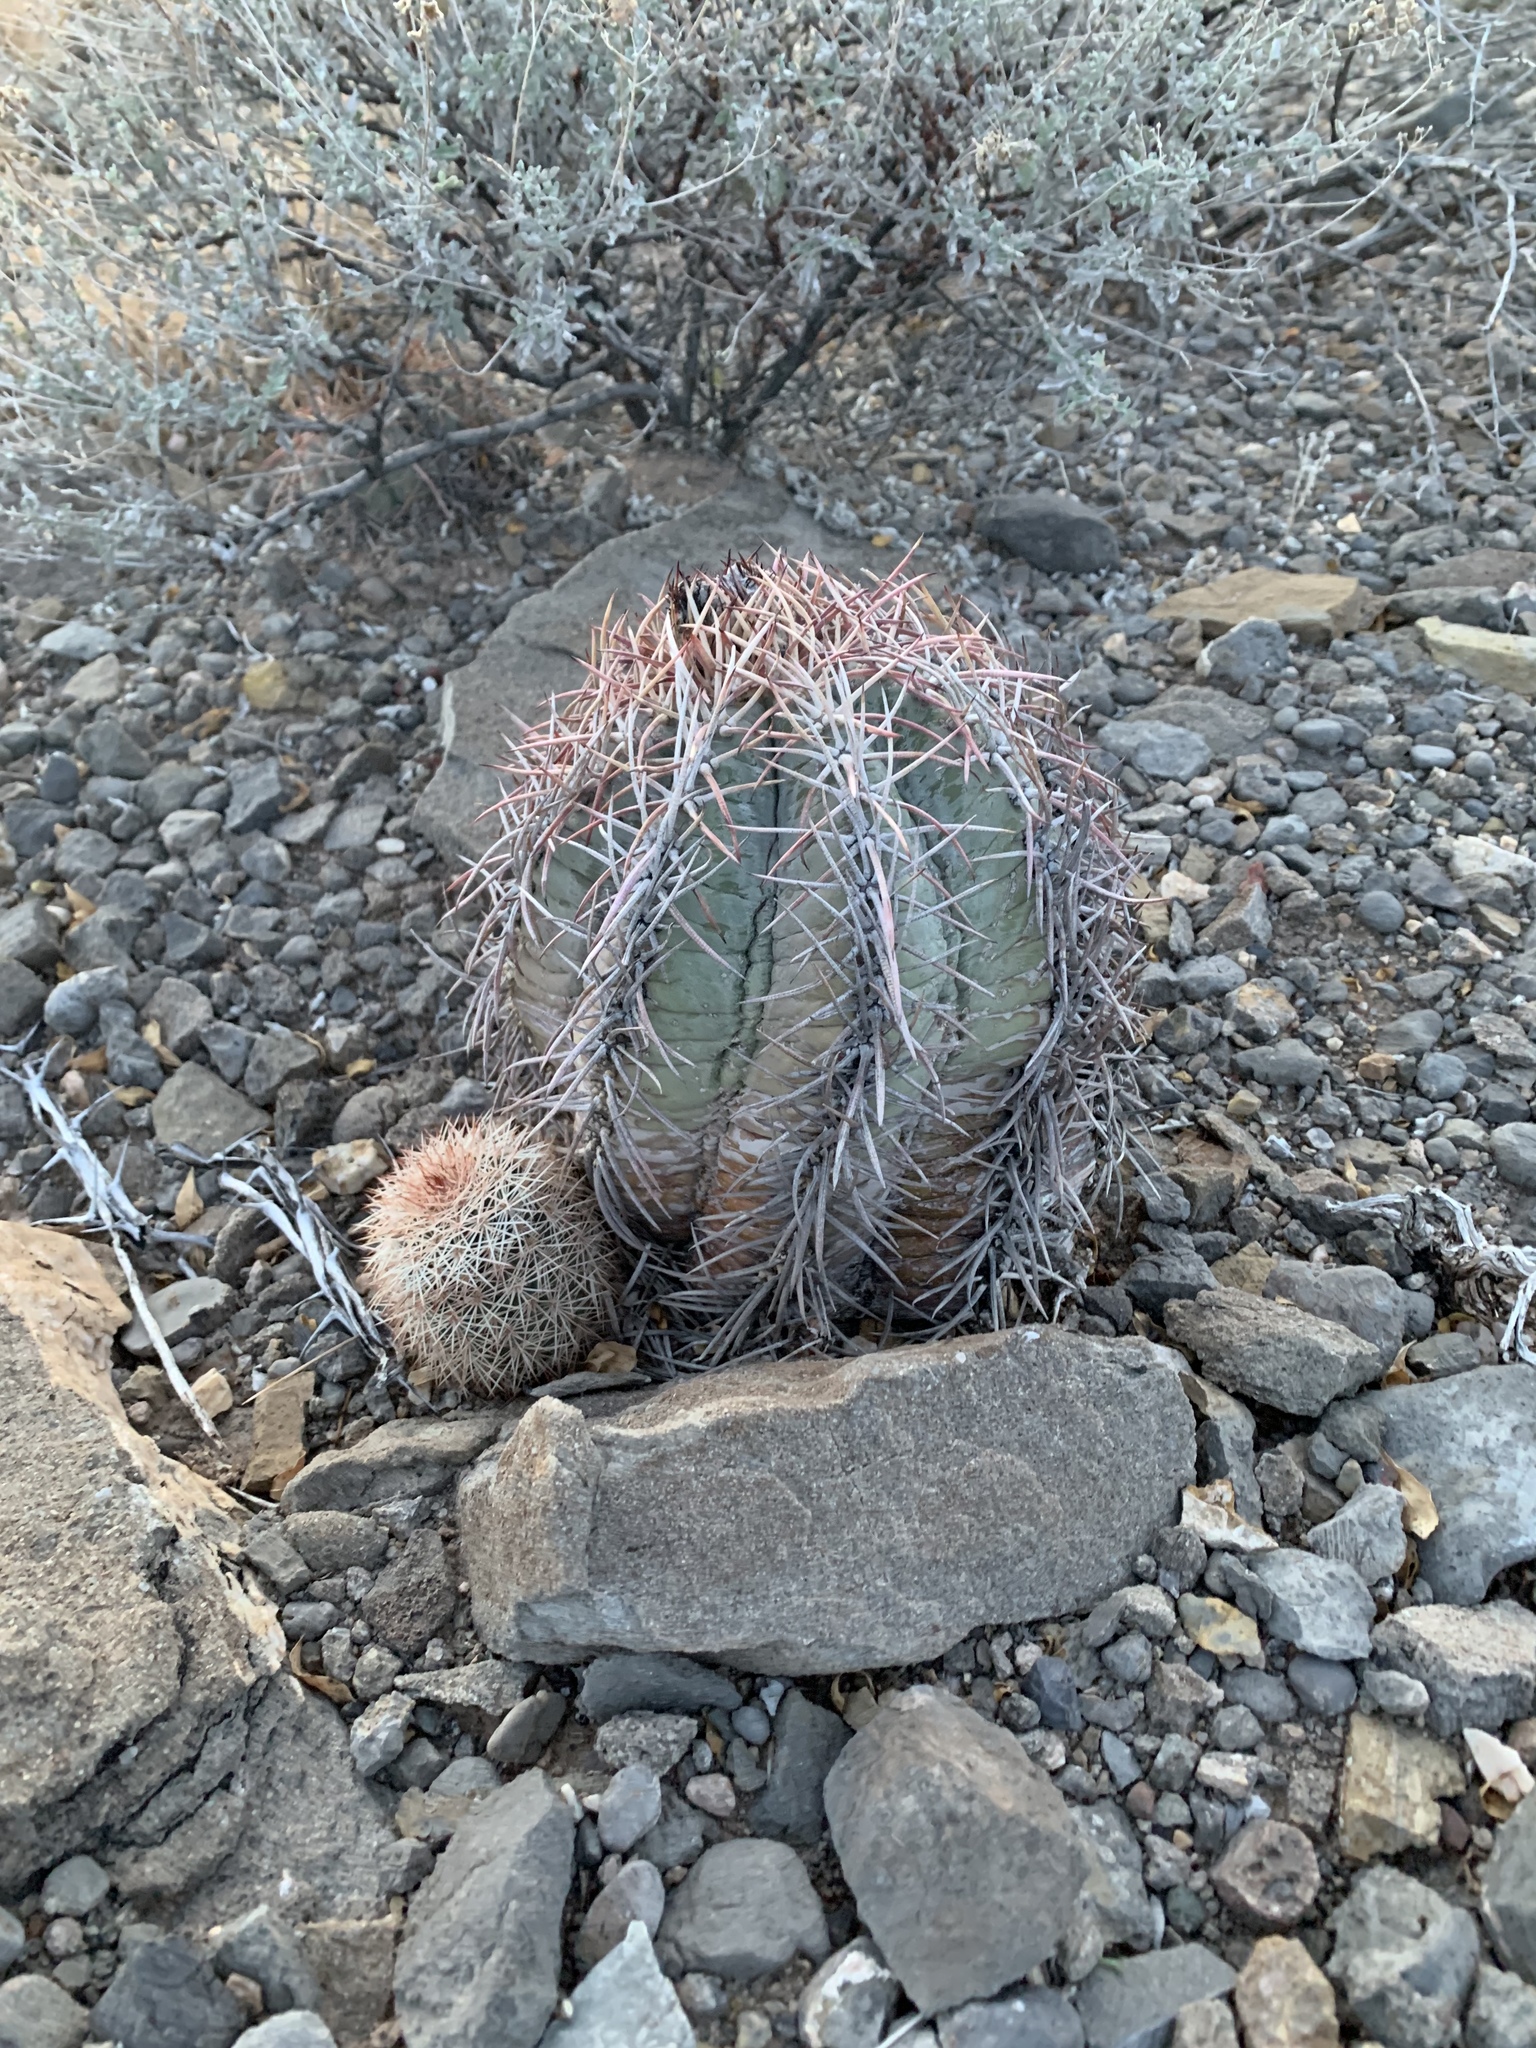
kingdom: Plantae
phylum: Tracheophyta
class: Magnoliopsida
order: Caryophyllales
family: Cactaceae
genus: Echinocactus
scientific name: Echinocactus horizonthalonius
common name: Devilshead
